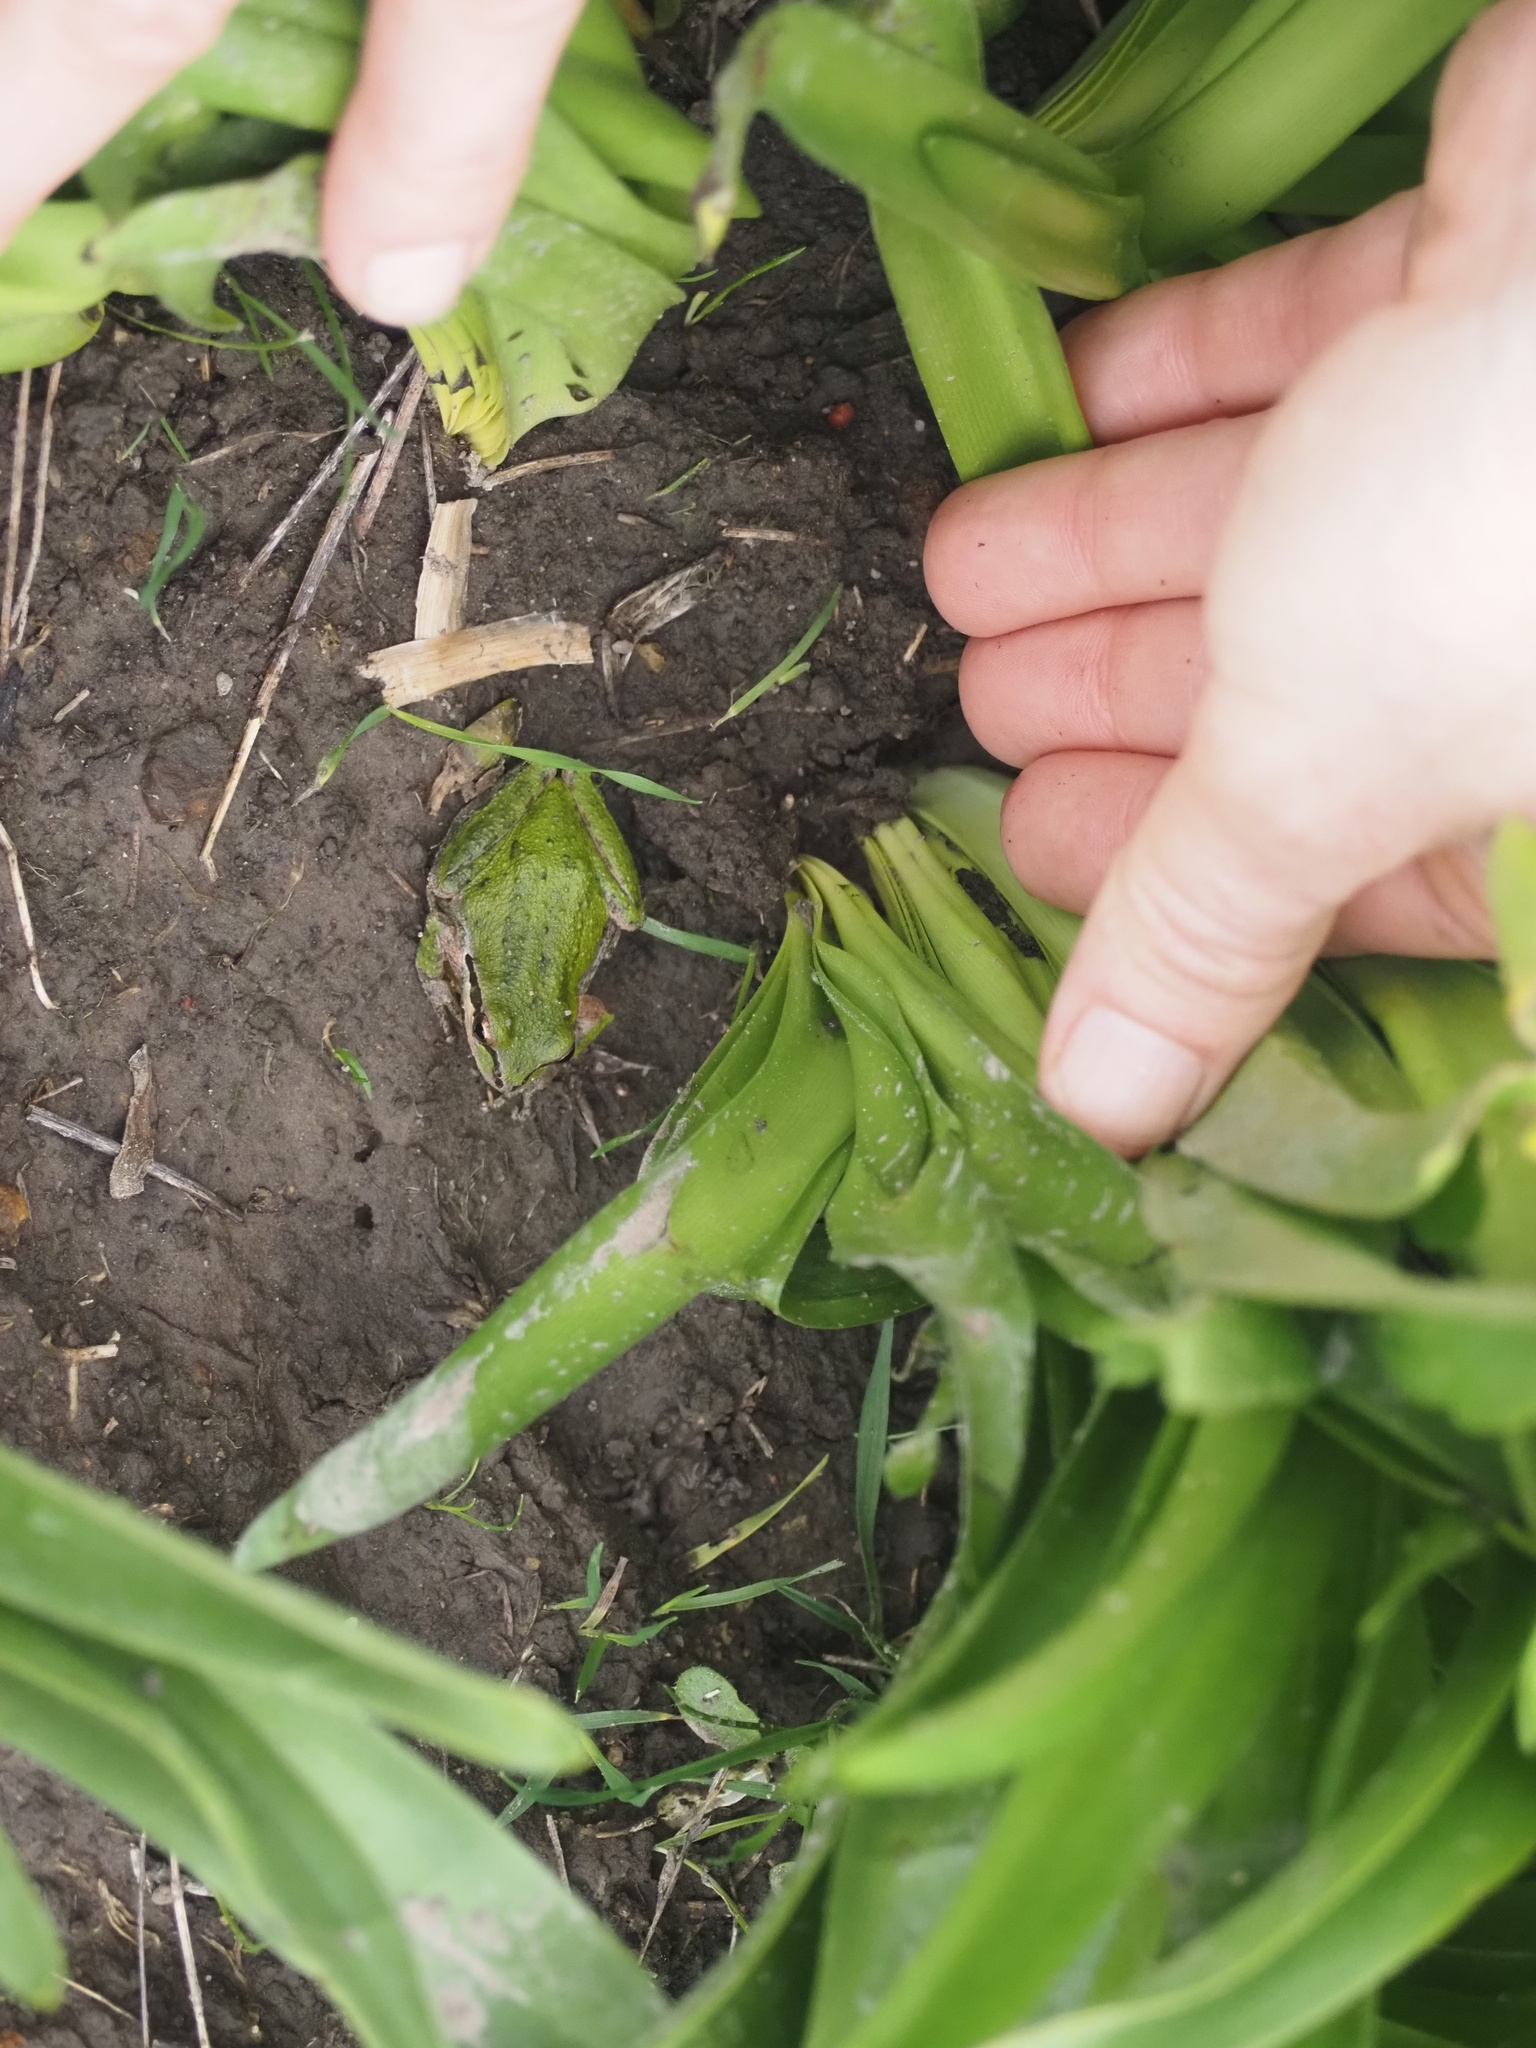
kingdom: Animalia
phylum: Chordata
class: Amphibia
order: Anura
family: Hylidae
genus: Pseudacris
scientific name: Pseudacris regilla
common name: Pacific chorus frog
